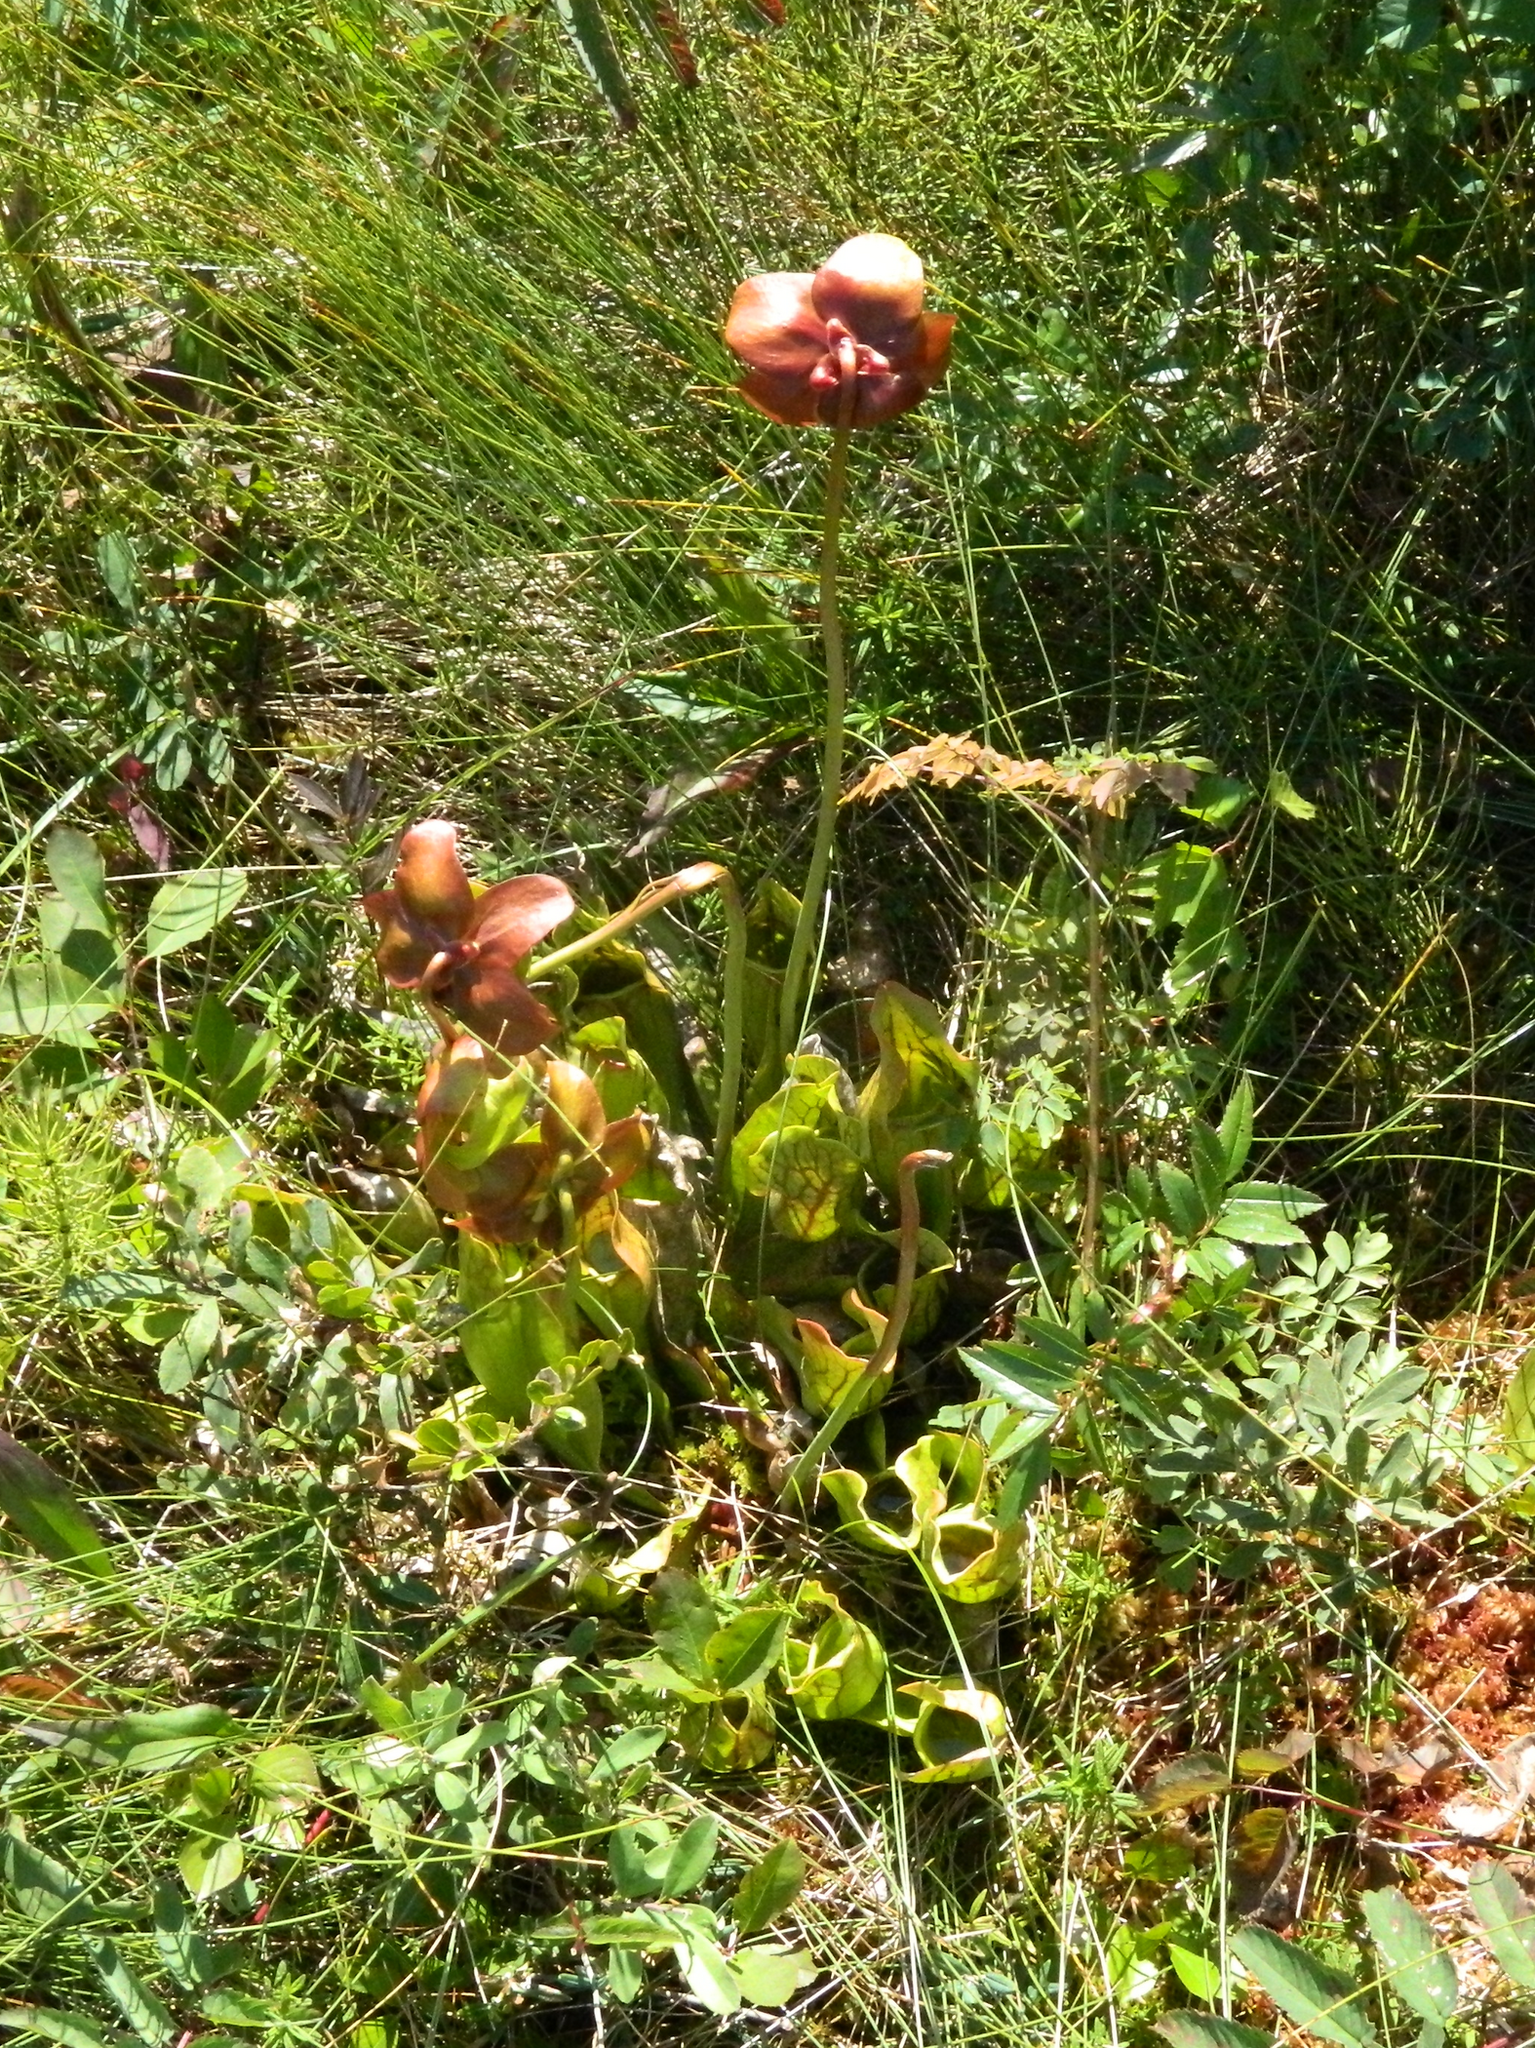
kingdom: Plantae
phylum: Tracheophyta
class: Magnoliopsida
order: Ericales
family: Sarraceniaceae
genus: Sarracenia
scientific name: Sarracenia purpurea
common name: Pitcherplant
